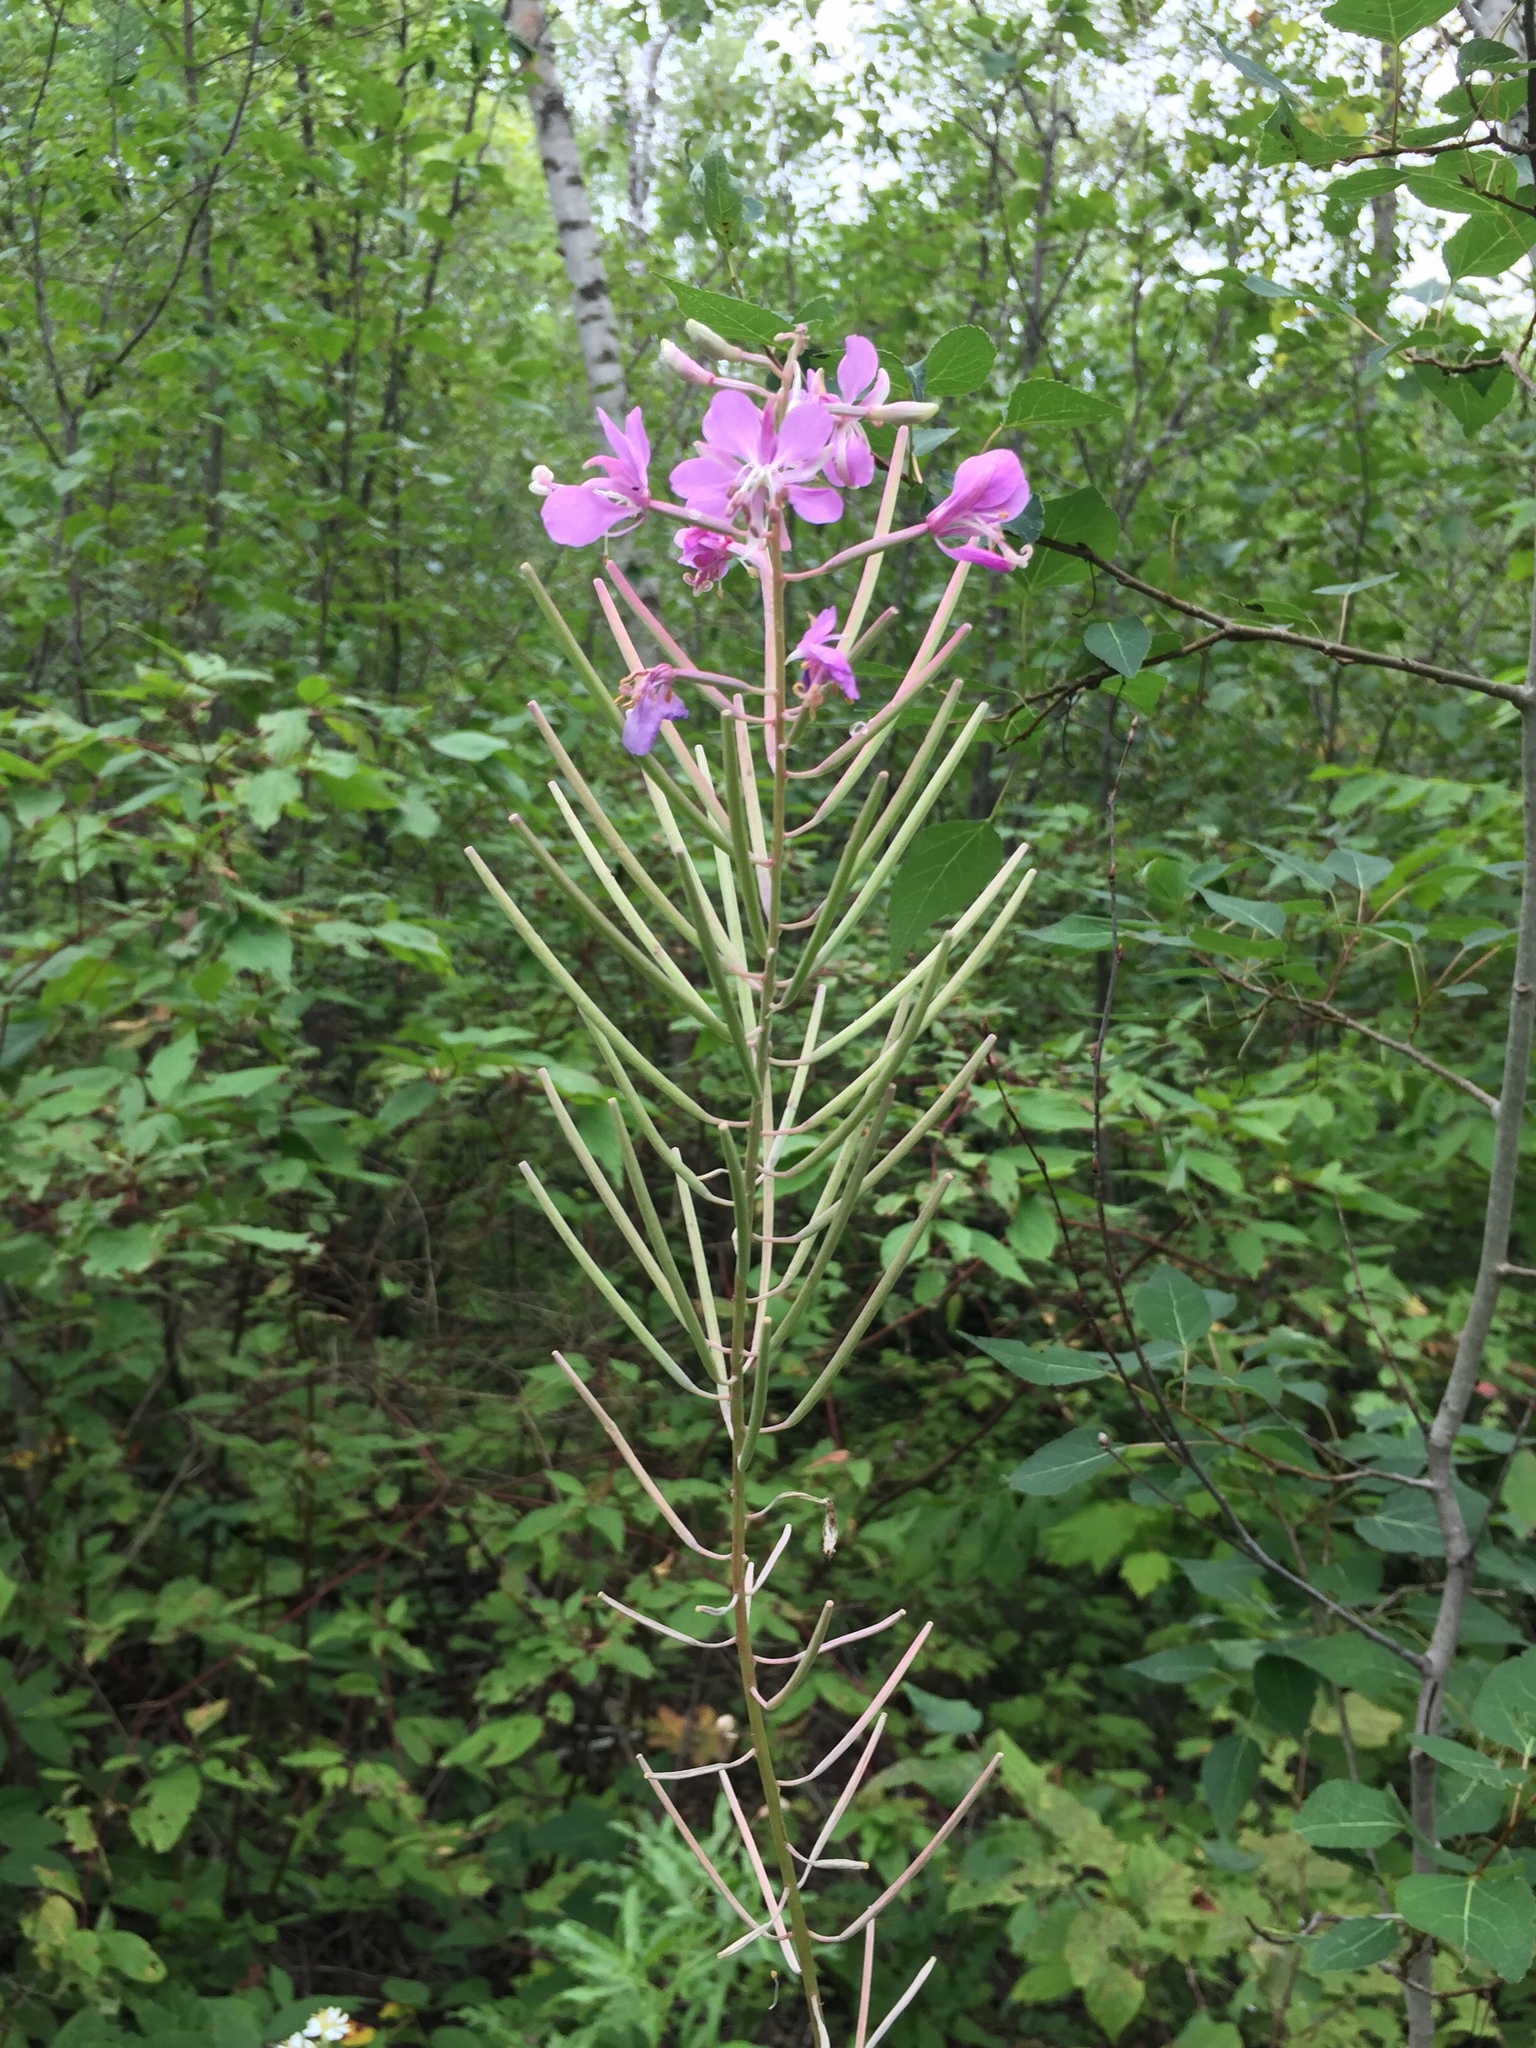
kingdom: Plantae
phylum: Tracheophyta
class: Magnoliopsida
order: Myrtales
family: Onagraceae
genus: Chamaenerion
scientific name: Chamaenerion angustifolium
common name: Fireweed
